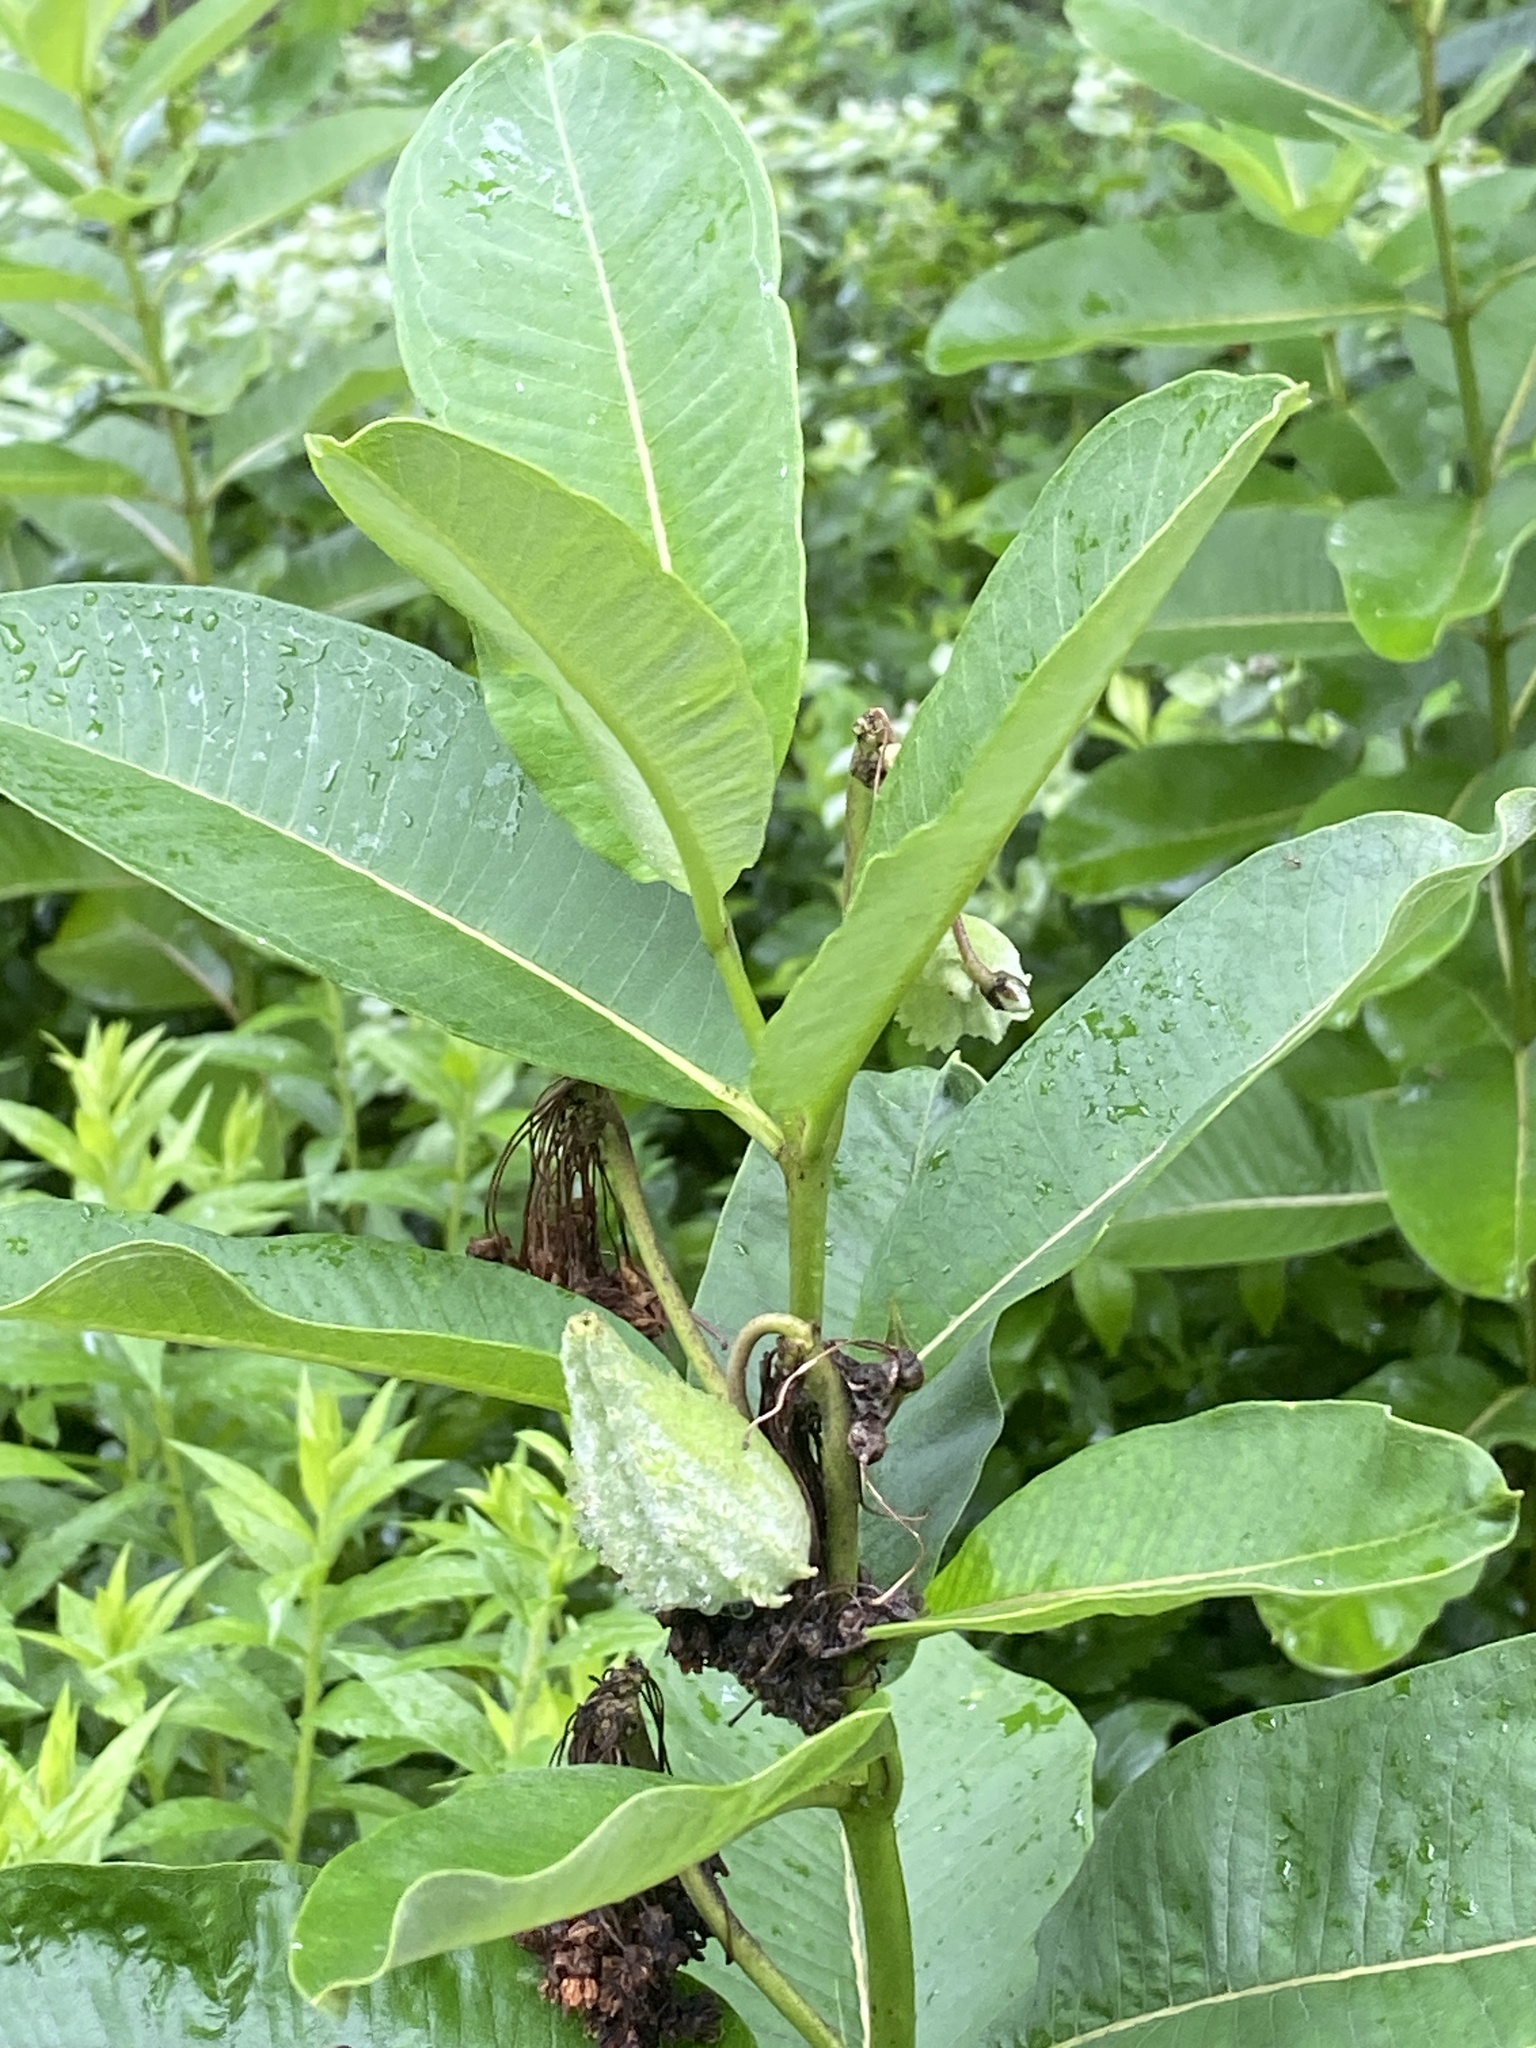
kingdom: Plantae
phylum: Tracheophyta
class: Magnoliopsida
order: Gentianales
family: Apocynaceae
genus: Asclepias
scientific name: Asclepias syriaca
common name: Common milkweed
